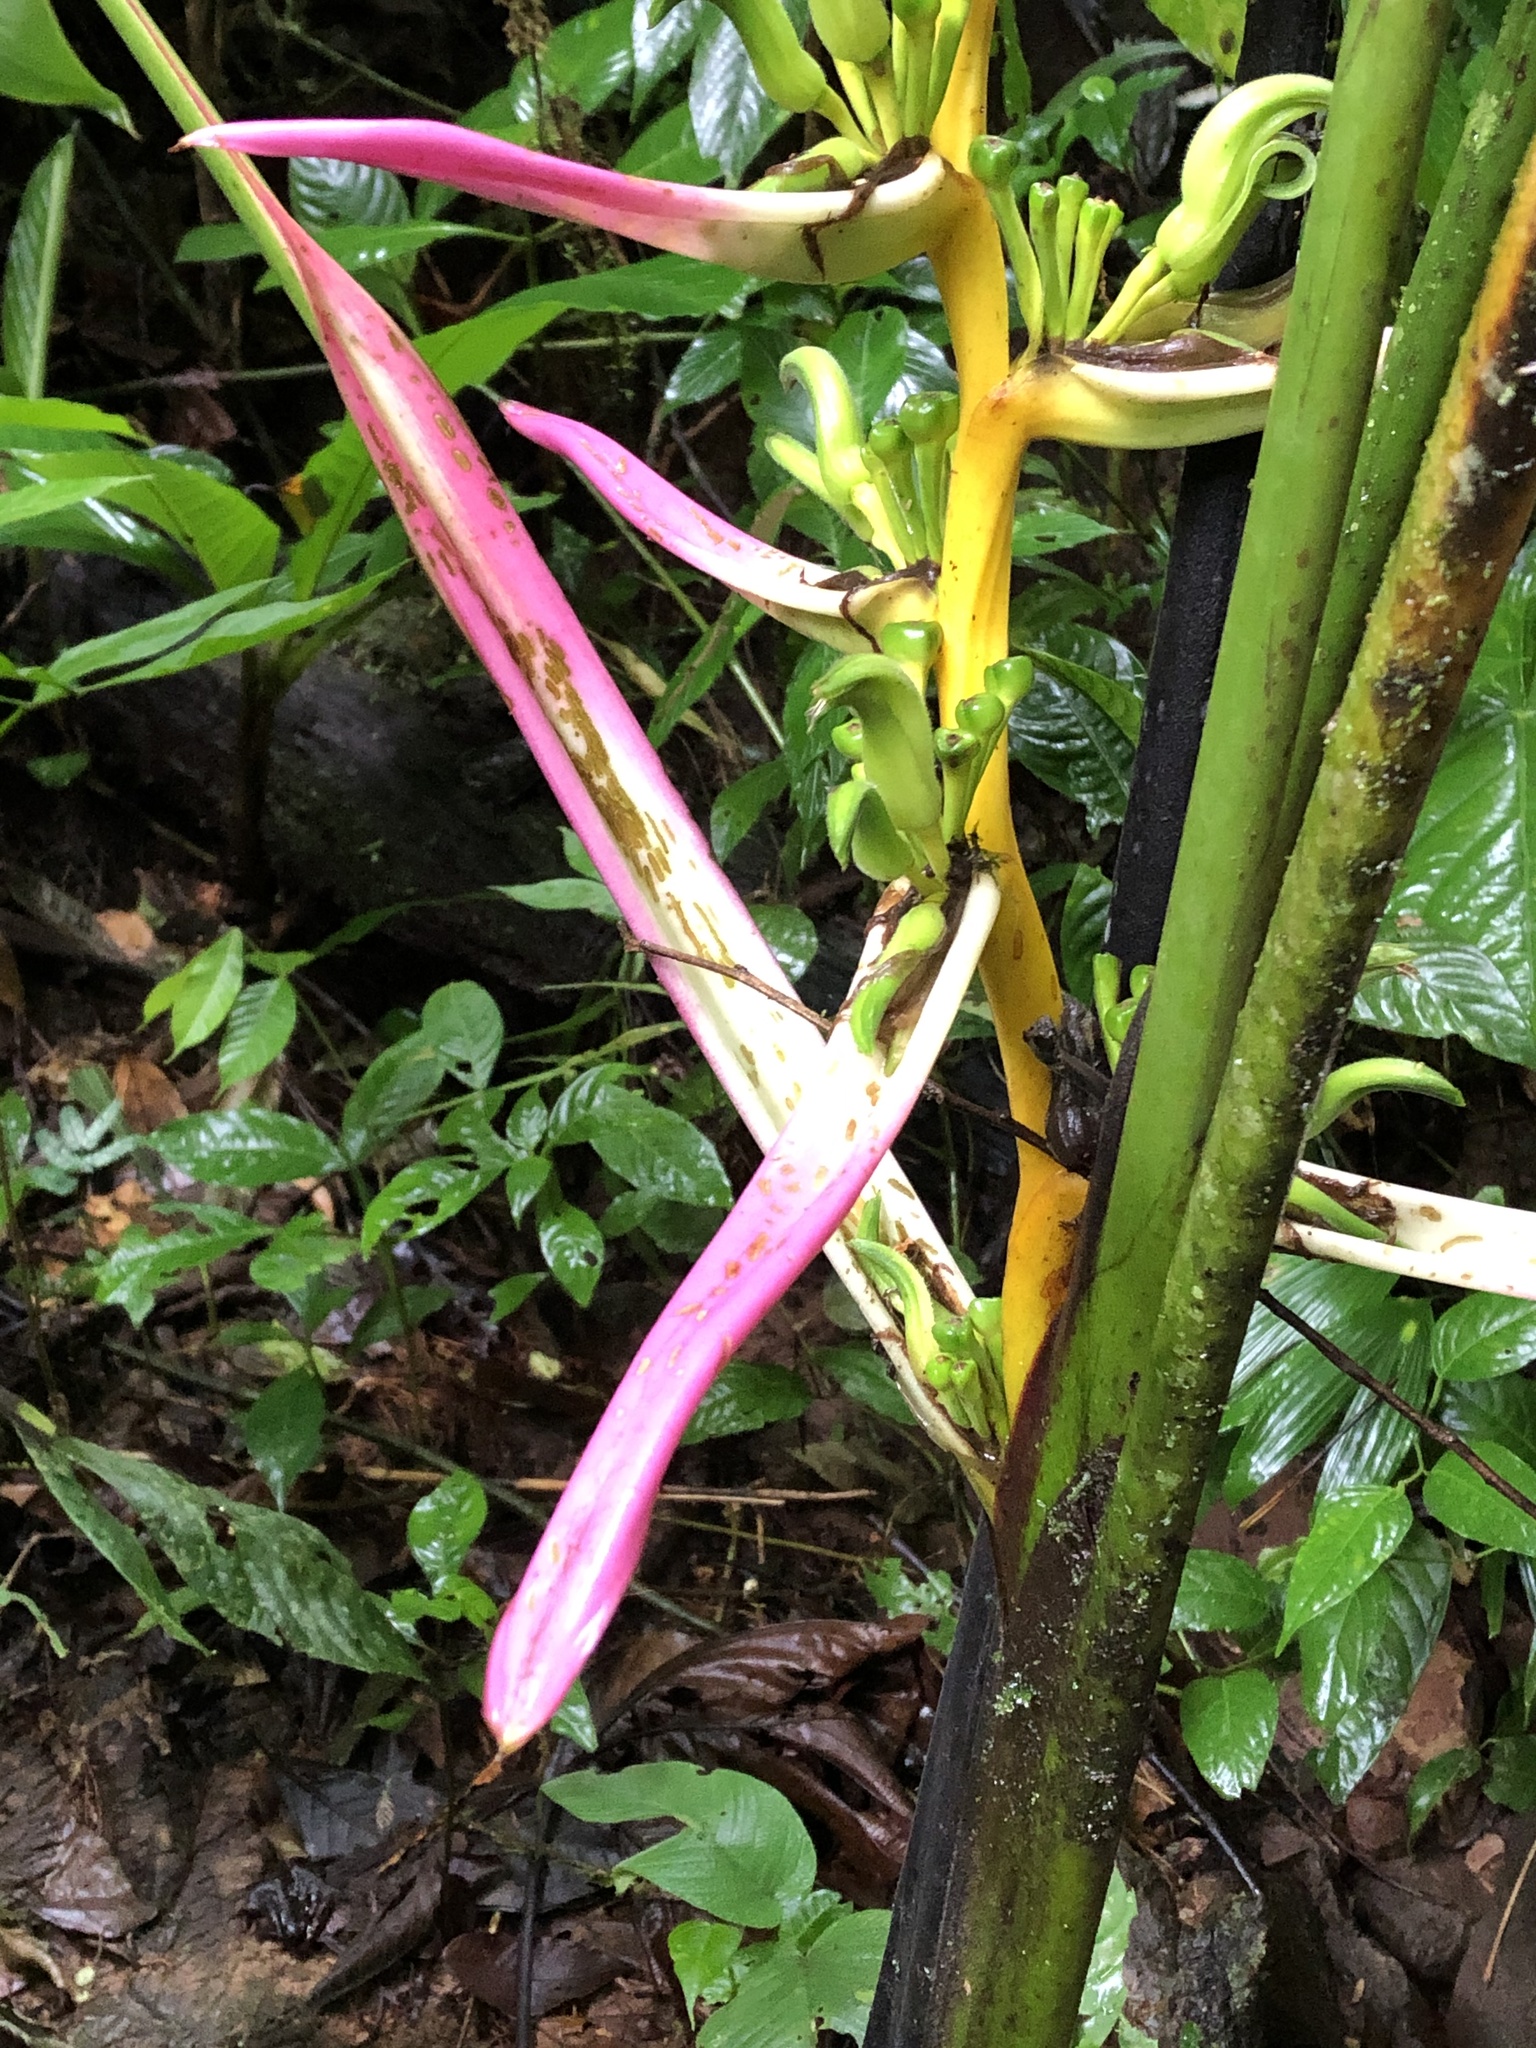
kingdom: Plantae
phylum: Tracheophyta
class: Liliopsida
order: Zingiberales
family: Heliconiaceae
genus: Heliconia
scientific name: Heliconia aemygdiana
